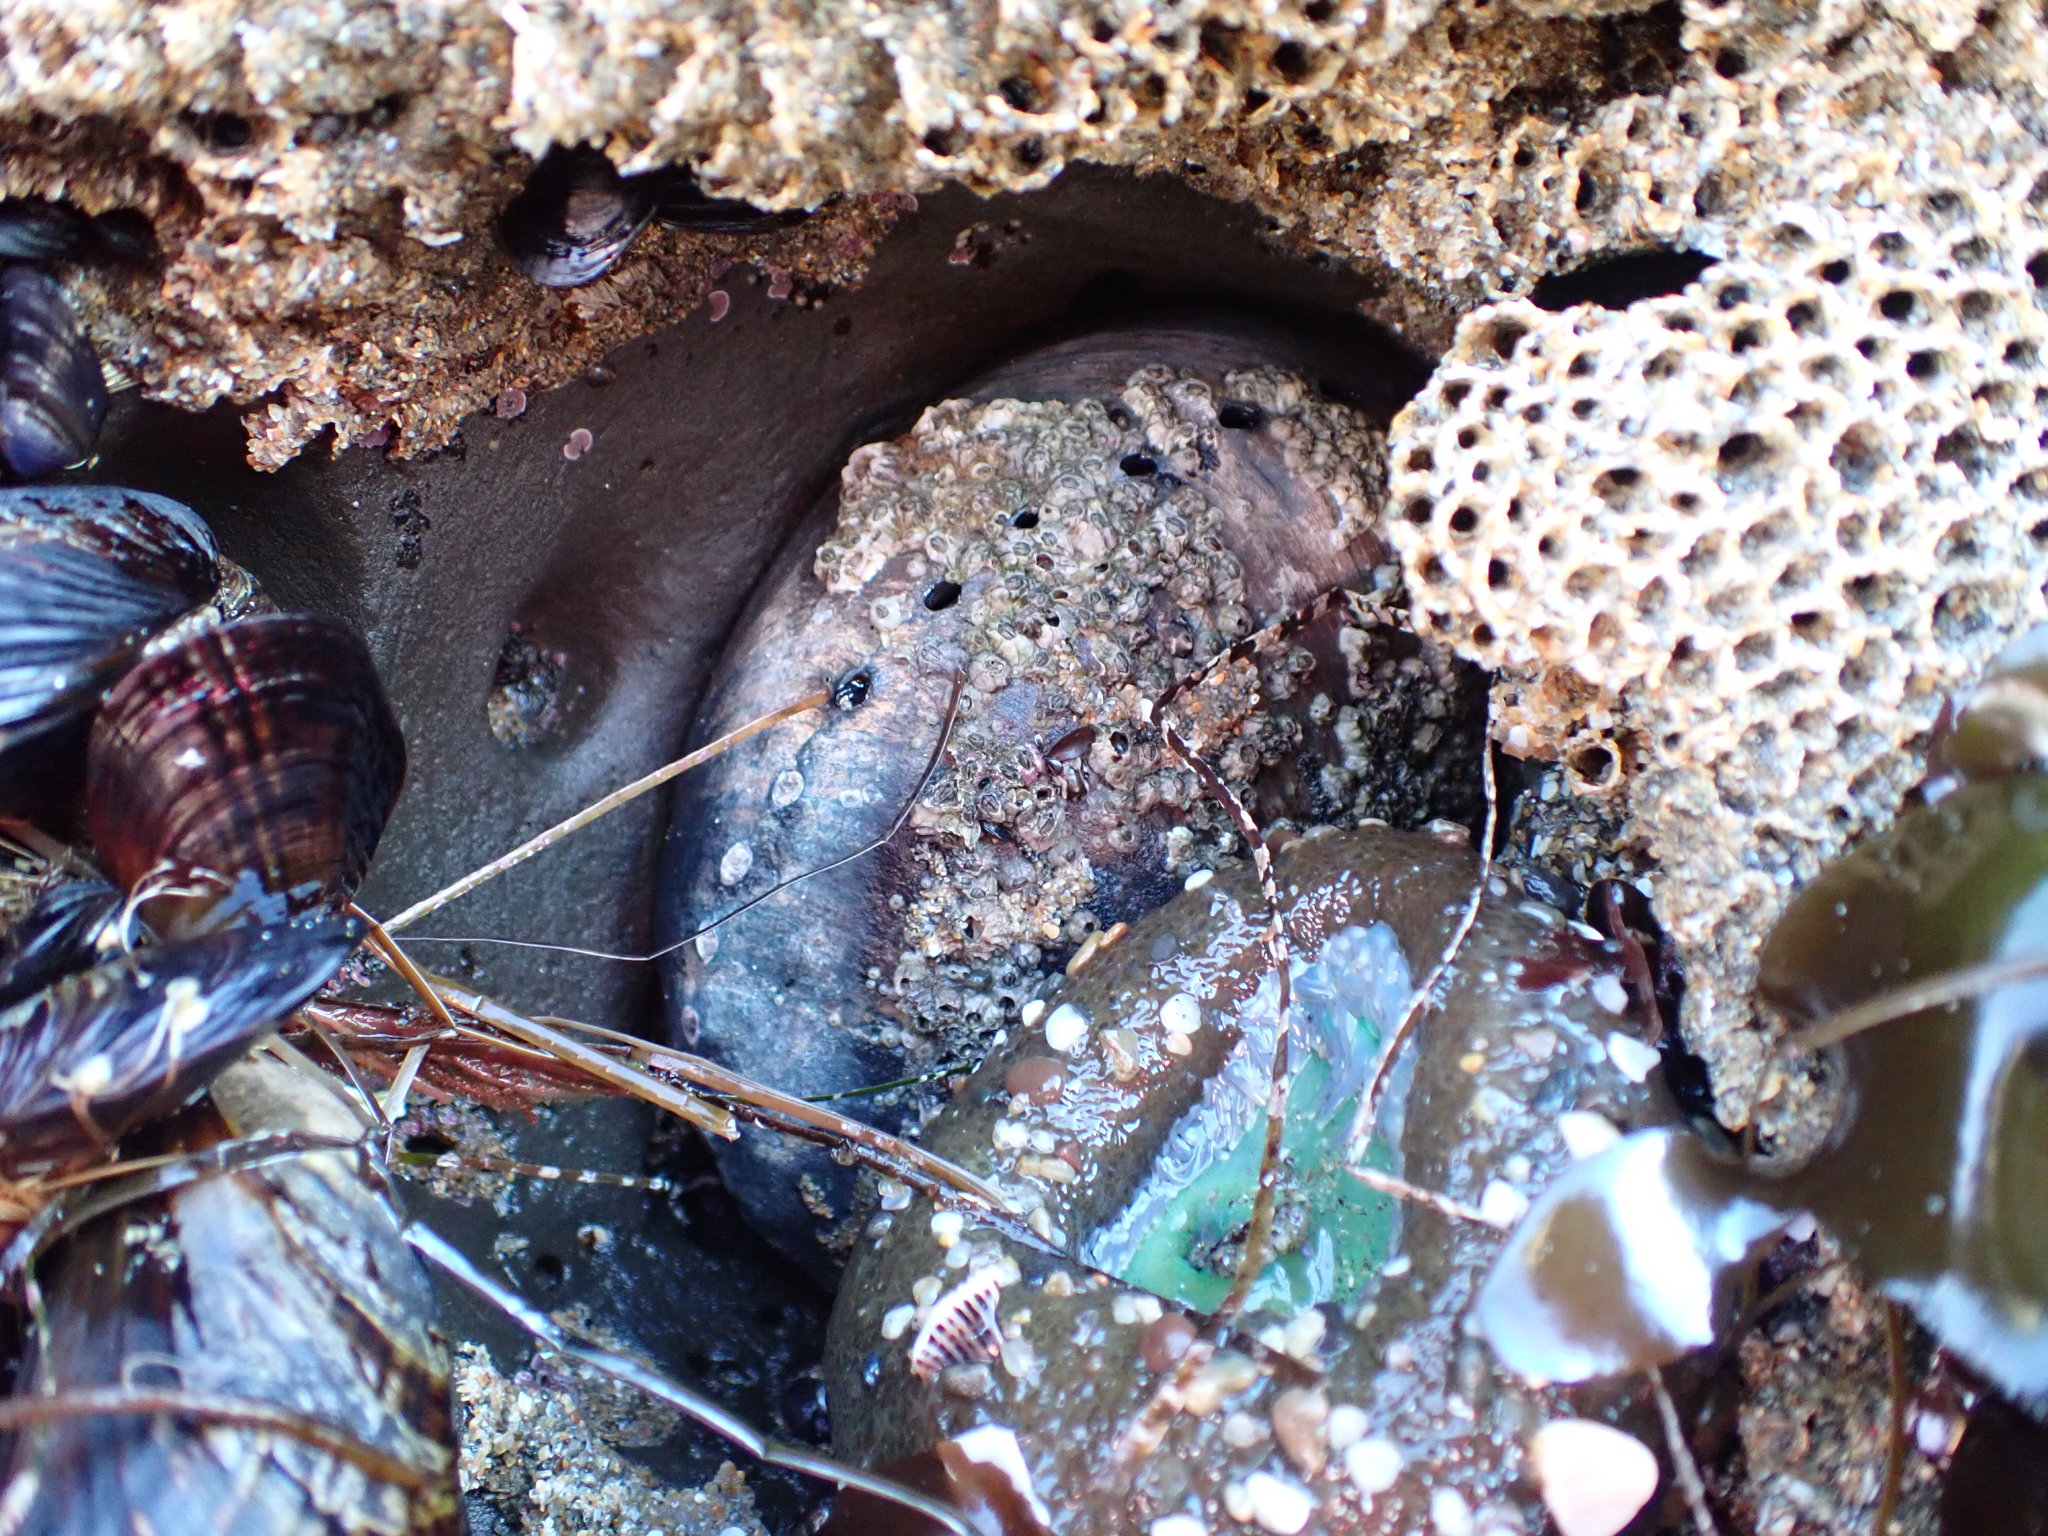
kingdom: Animalia
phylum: Mollusca
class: Gastropoda
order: Lepetellida
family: Haliotidae
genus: Haliotis
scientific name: Haliotis cracherodii
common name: Black abalone
